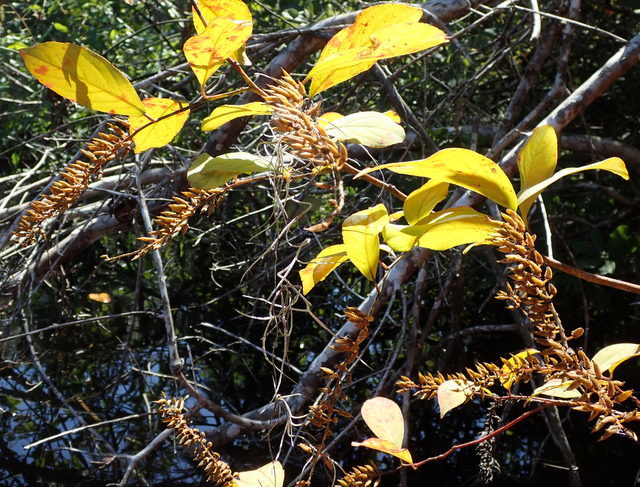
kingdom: Plantae
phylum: Tracheophyta
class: Magnoliopsida
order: Saxifragales
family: Iteaceae
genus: Itea
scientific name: Itea virginica
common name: Sweetspire
